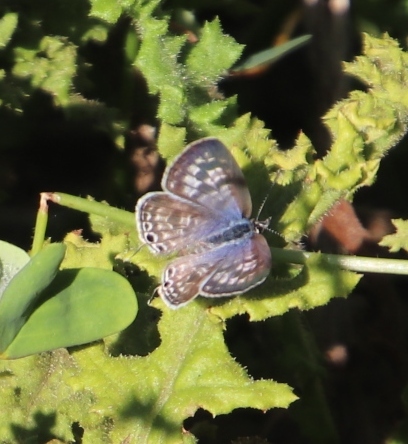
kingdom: Animalia
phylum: Arthropoda
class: Insecta
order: Lepidoptera
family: Lycaenidae
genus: Leptotes
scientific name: Leptotes
